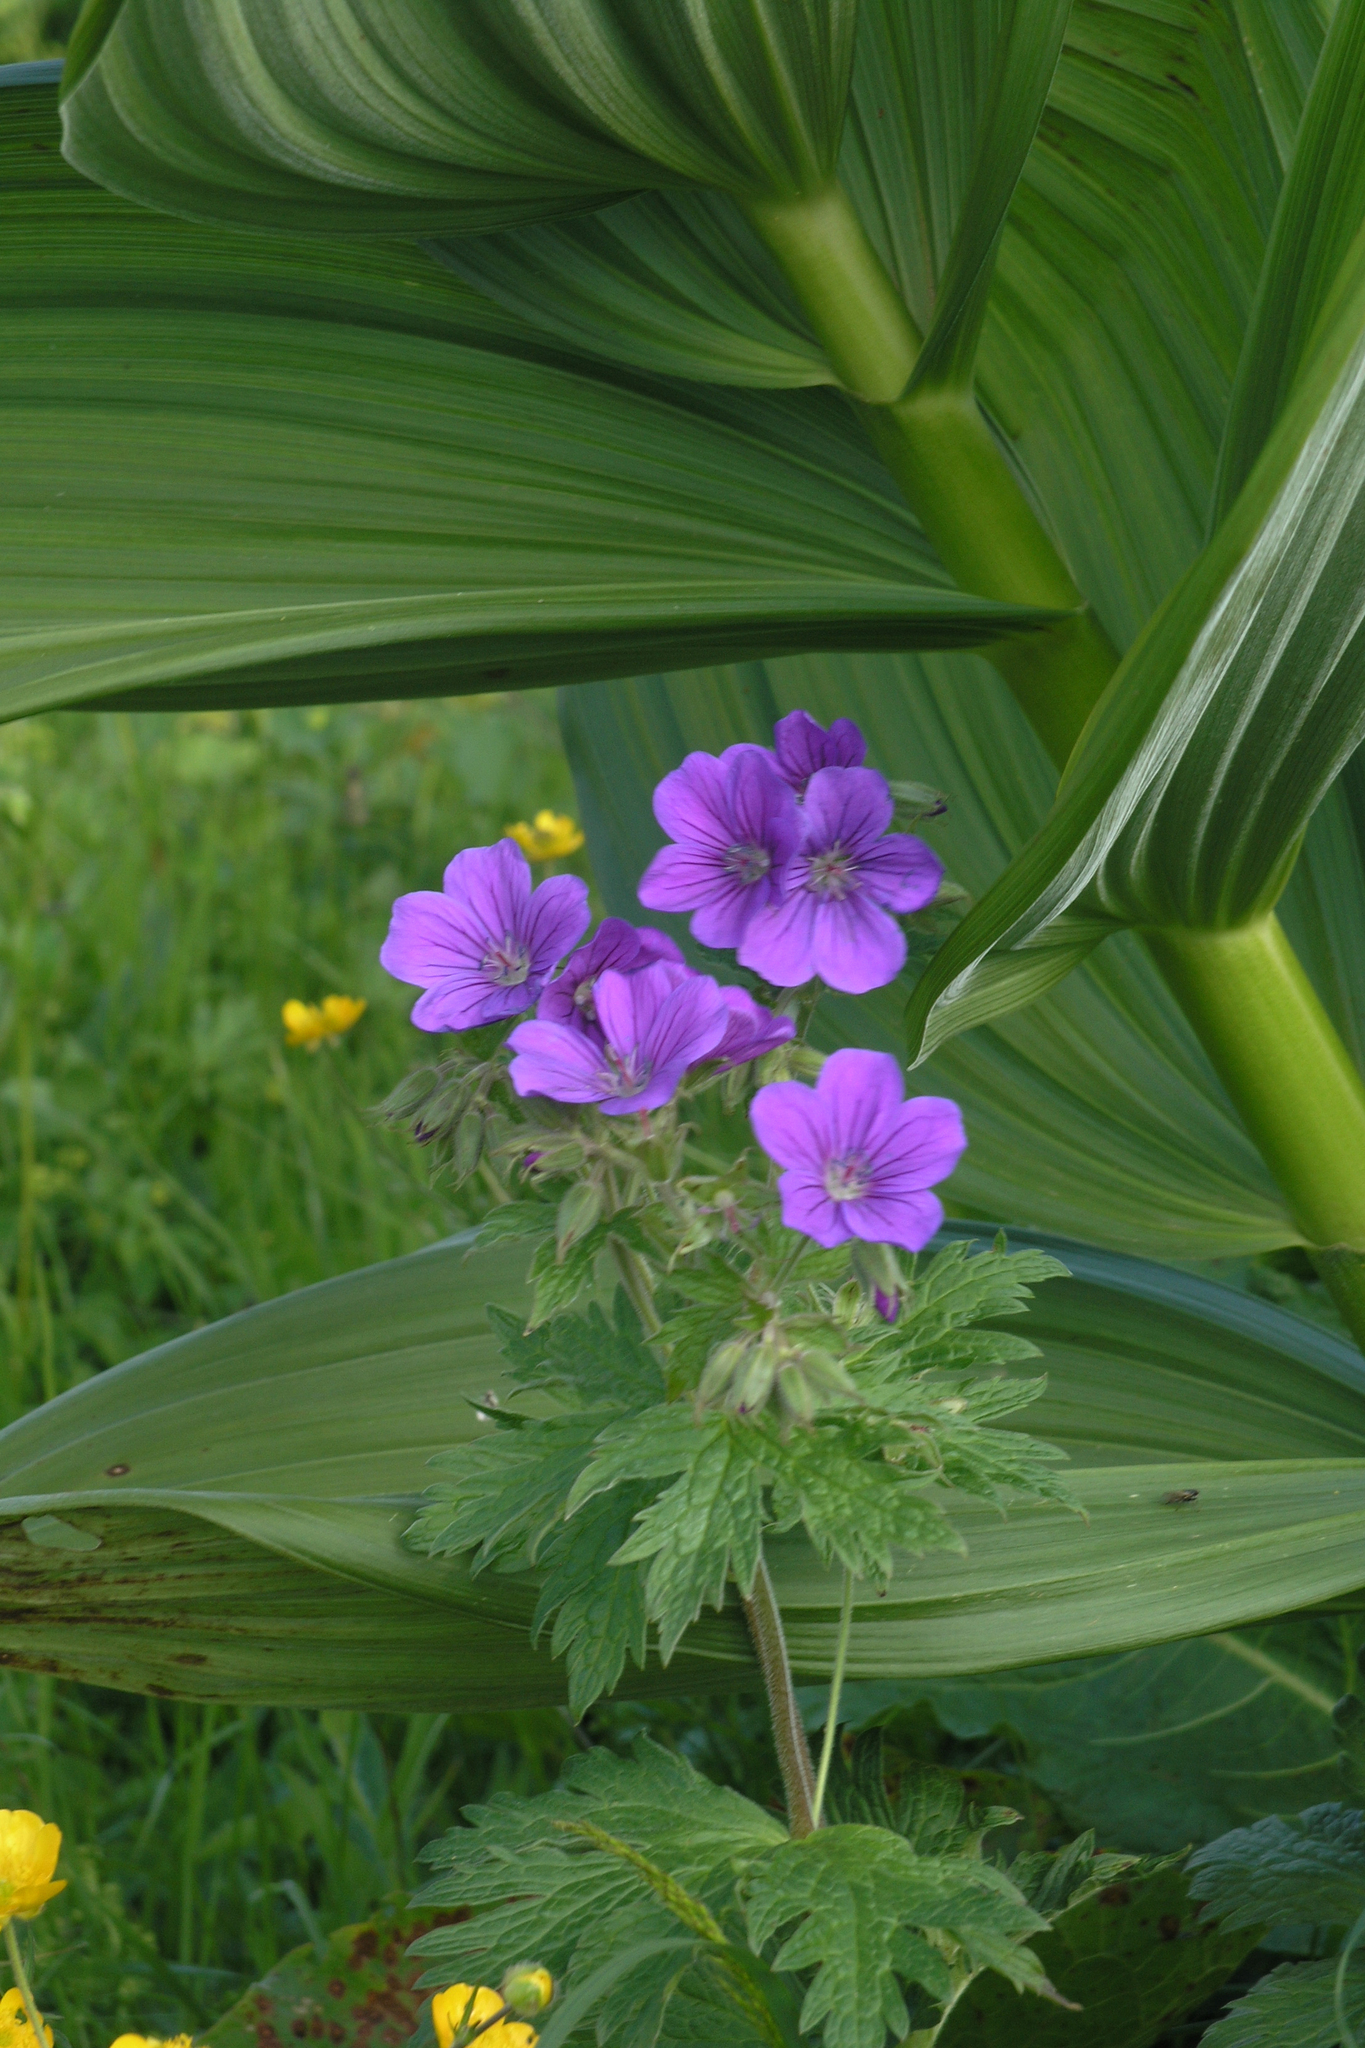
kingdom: Plantae
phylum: Tracheophyta
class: Liliopsida
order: Liliales
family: Melanthiaceae
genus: Veratrum
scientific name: Veratrum lobelianum
